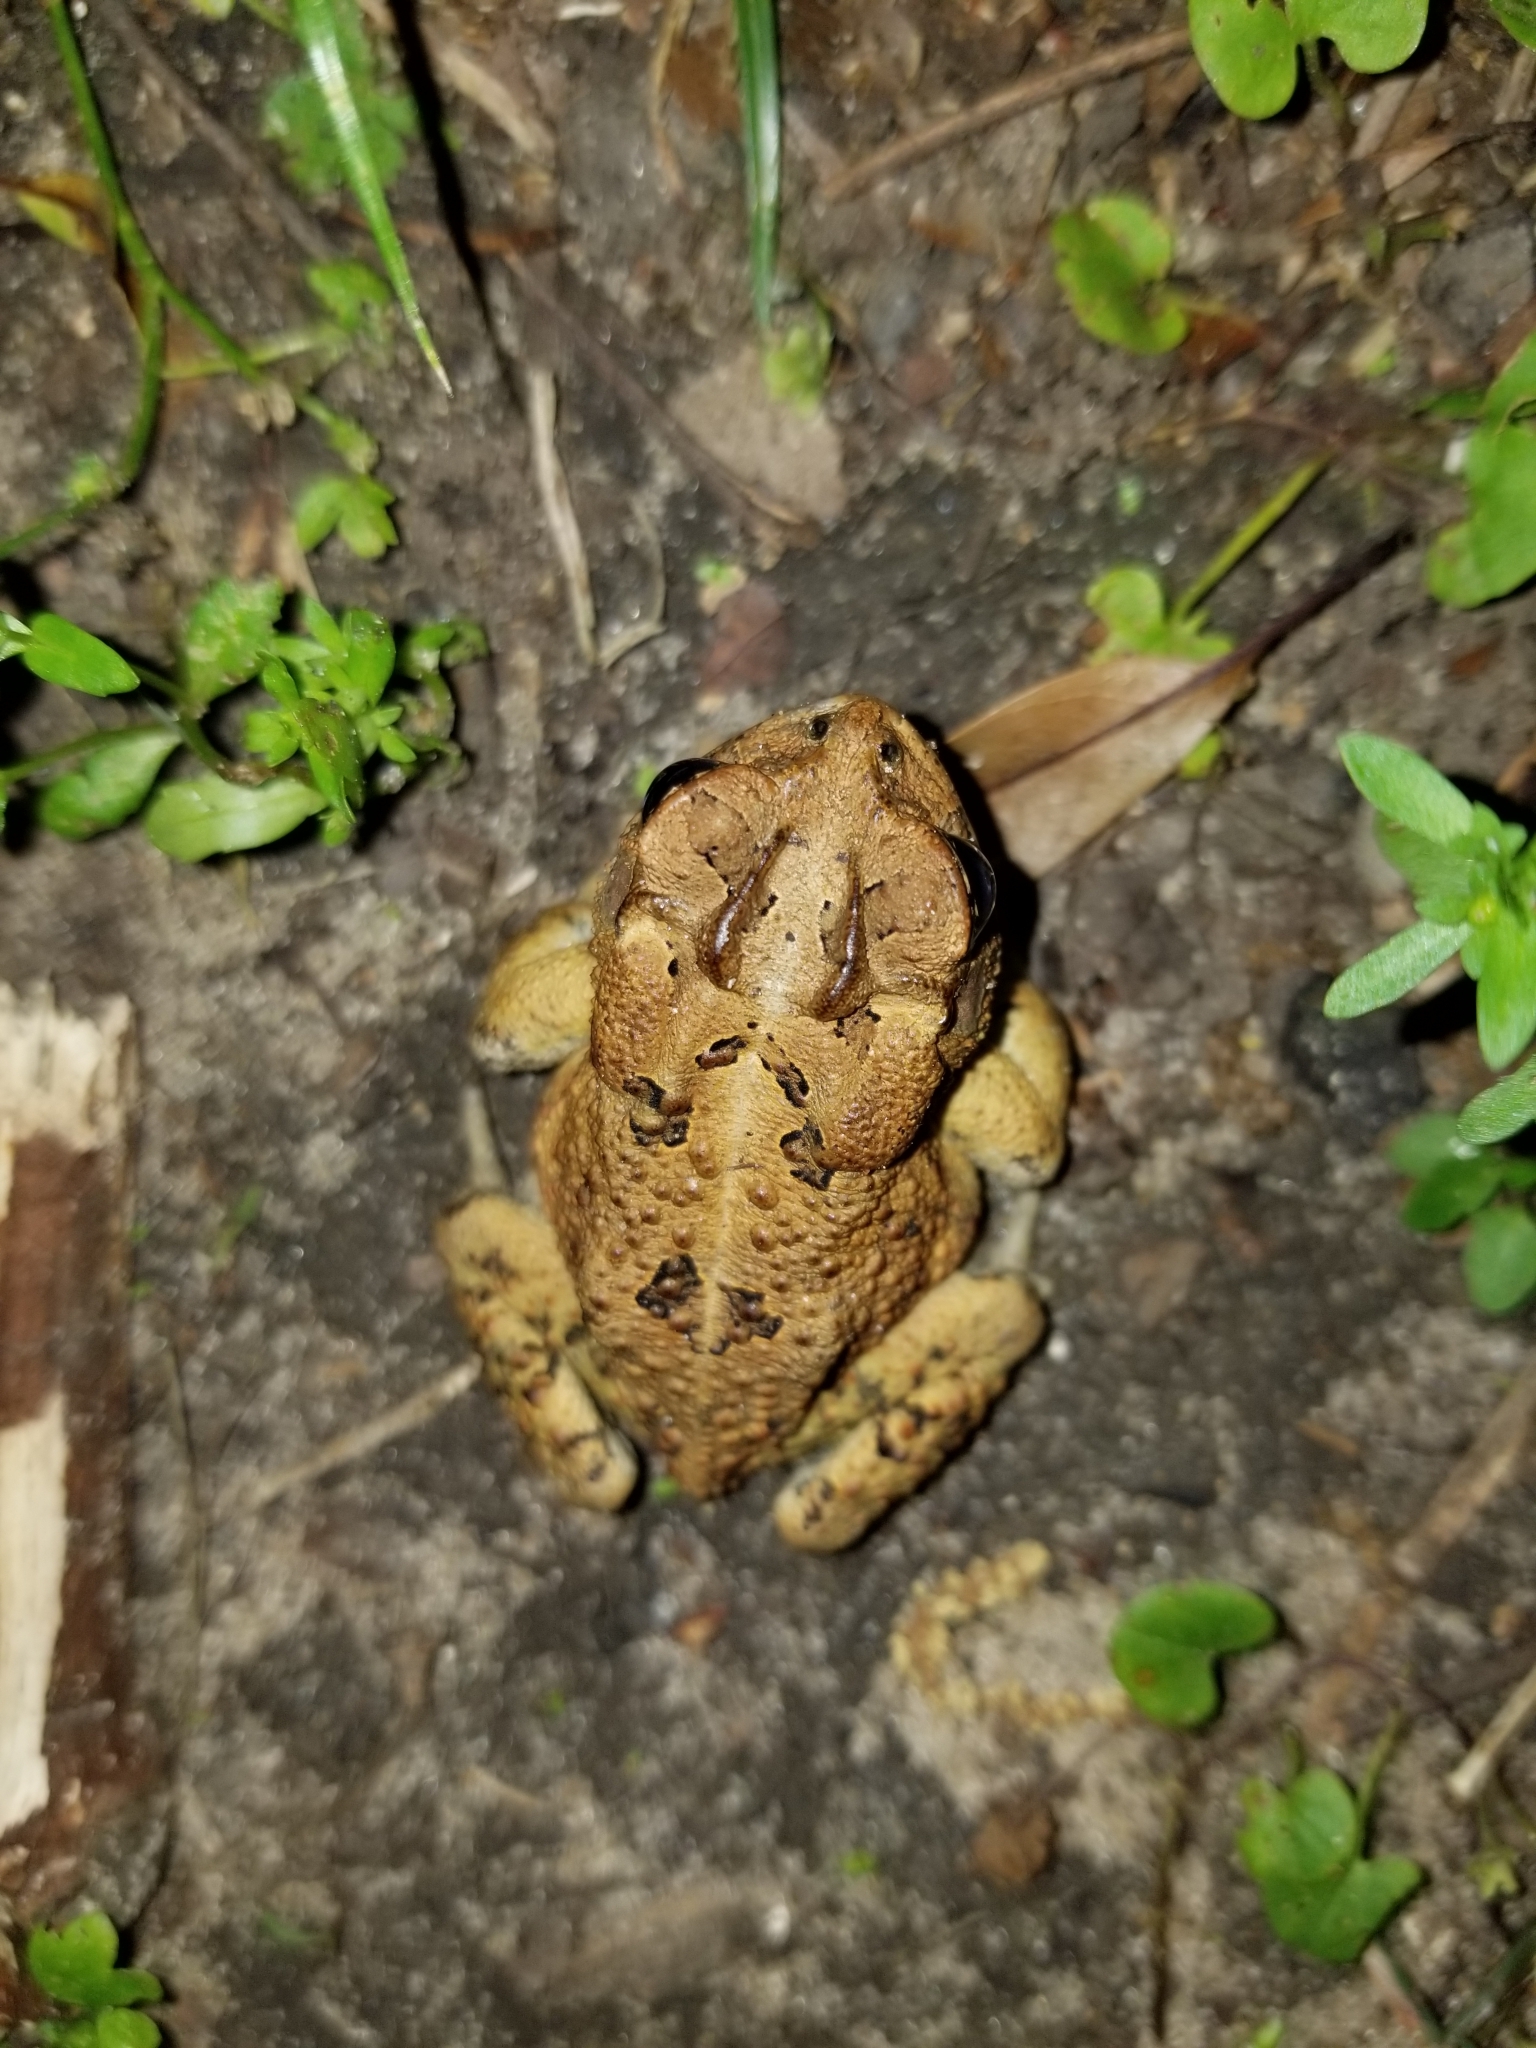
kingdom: Animalia
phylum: Chordata
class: Amphibia
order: Anura
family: Bufonidae
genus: Anaxyrus
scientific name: Anaxyrus terrestris
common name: Southern toad
